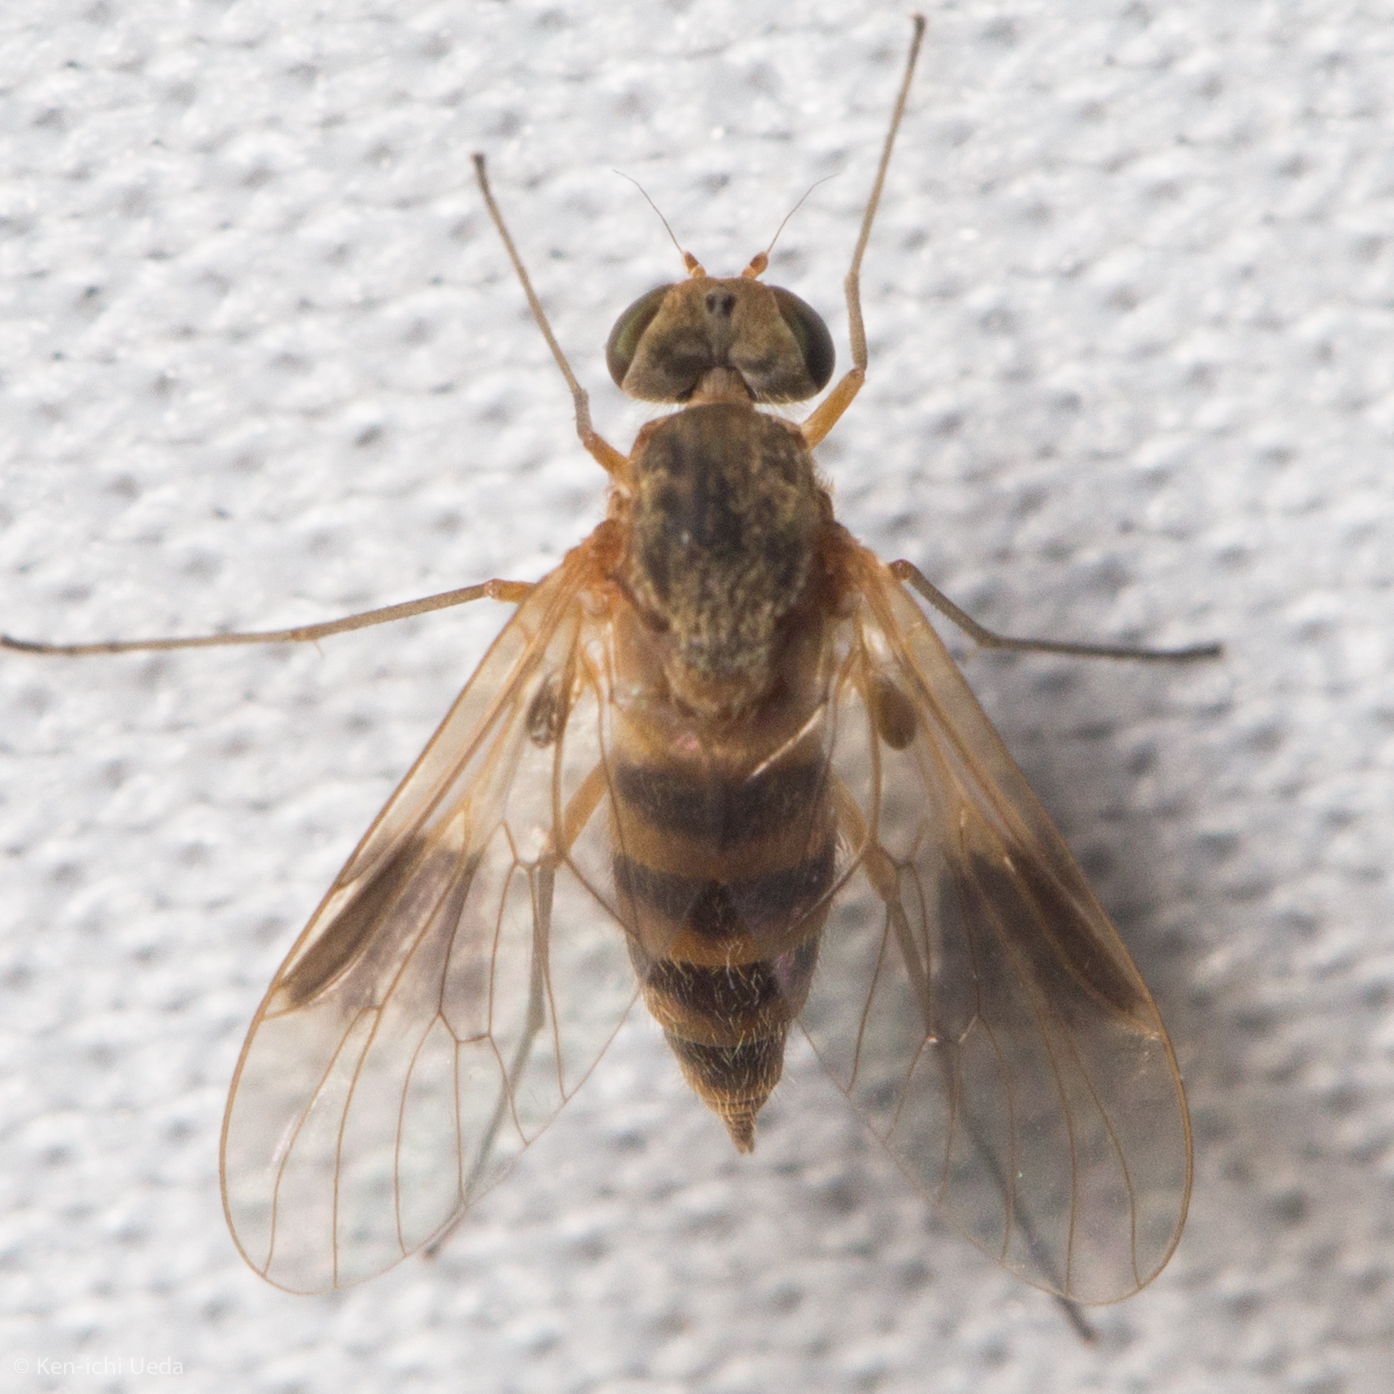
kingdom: Animalia
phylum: Arthropoda
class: Insecta
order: Diptera
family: Rhagionidae
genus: Chrysopilus
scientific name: Chrysopilus quadratus
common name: Quadrate snipe fly
